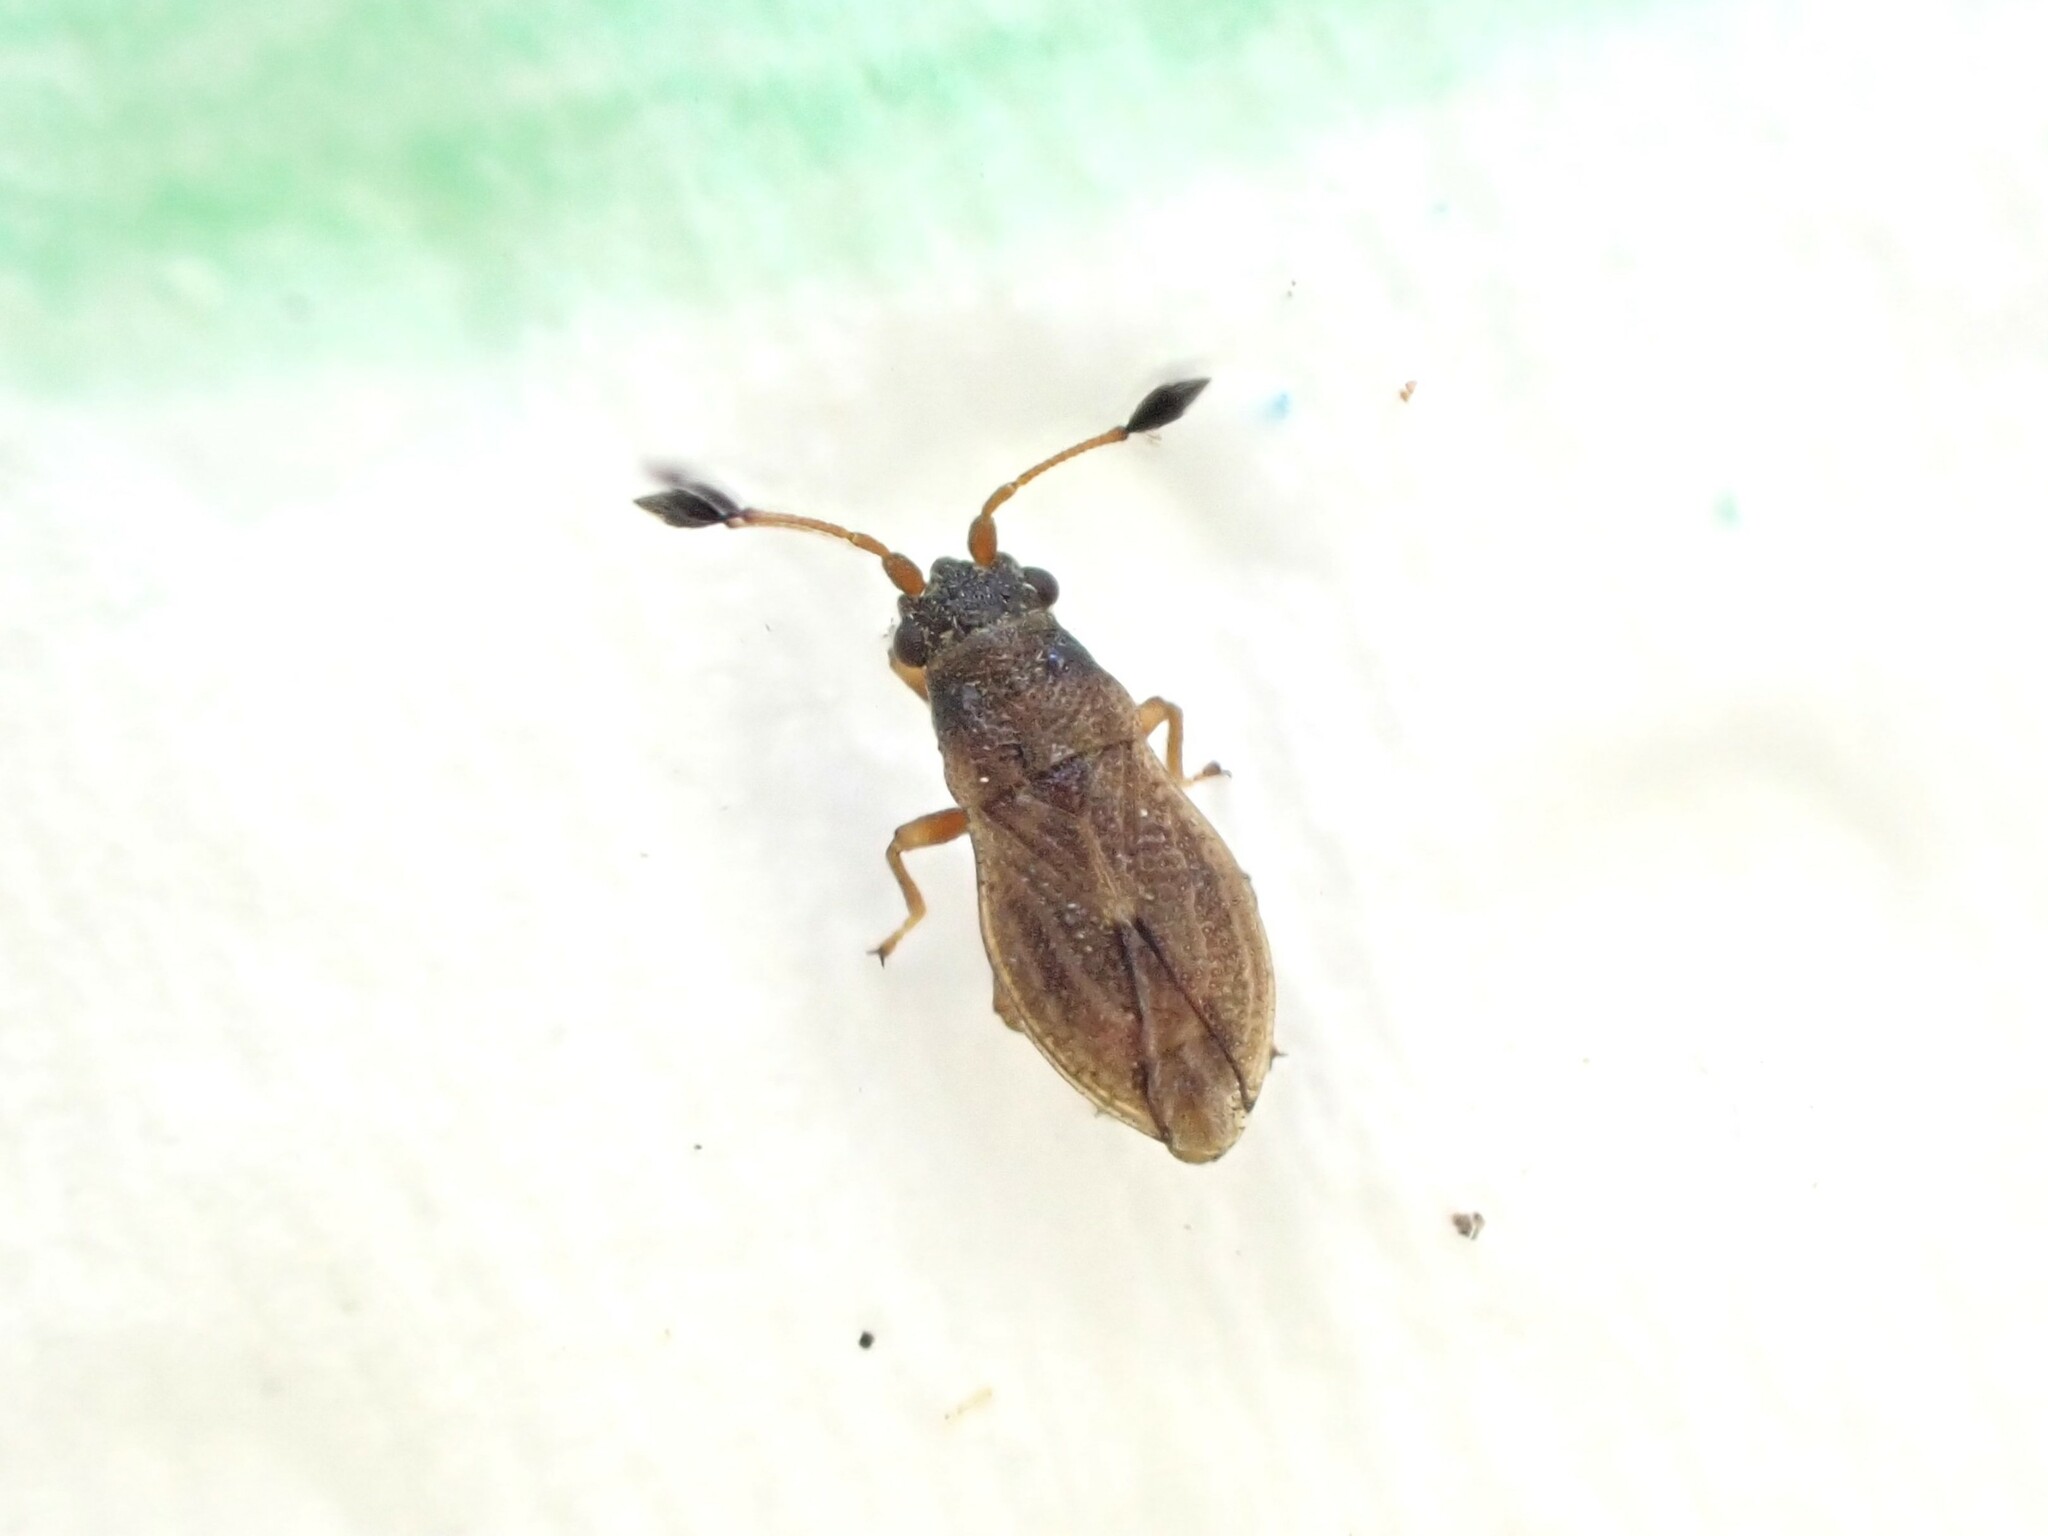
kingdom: Animalia
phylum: Arthropoda
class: Insecta
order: Hemiptera
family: Cymidae
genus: Cymus
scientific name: Cymus novaezelandiae
